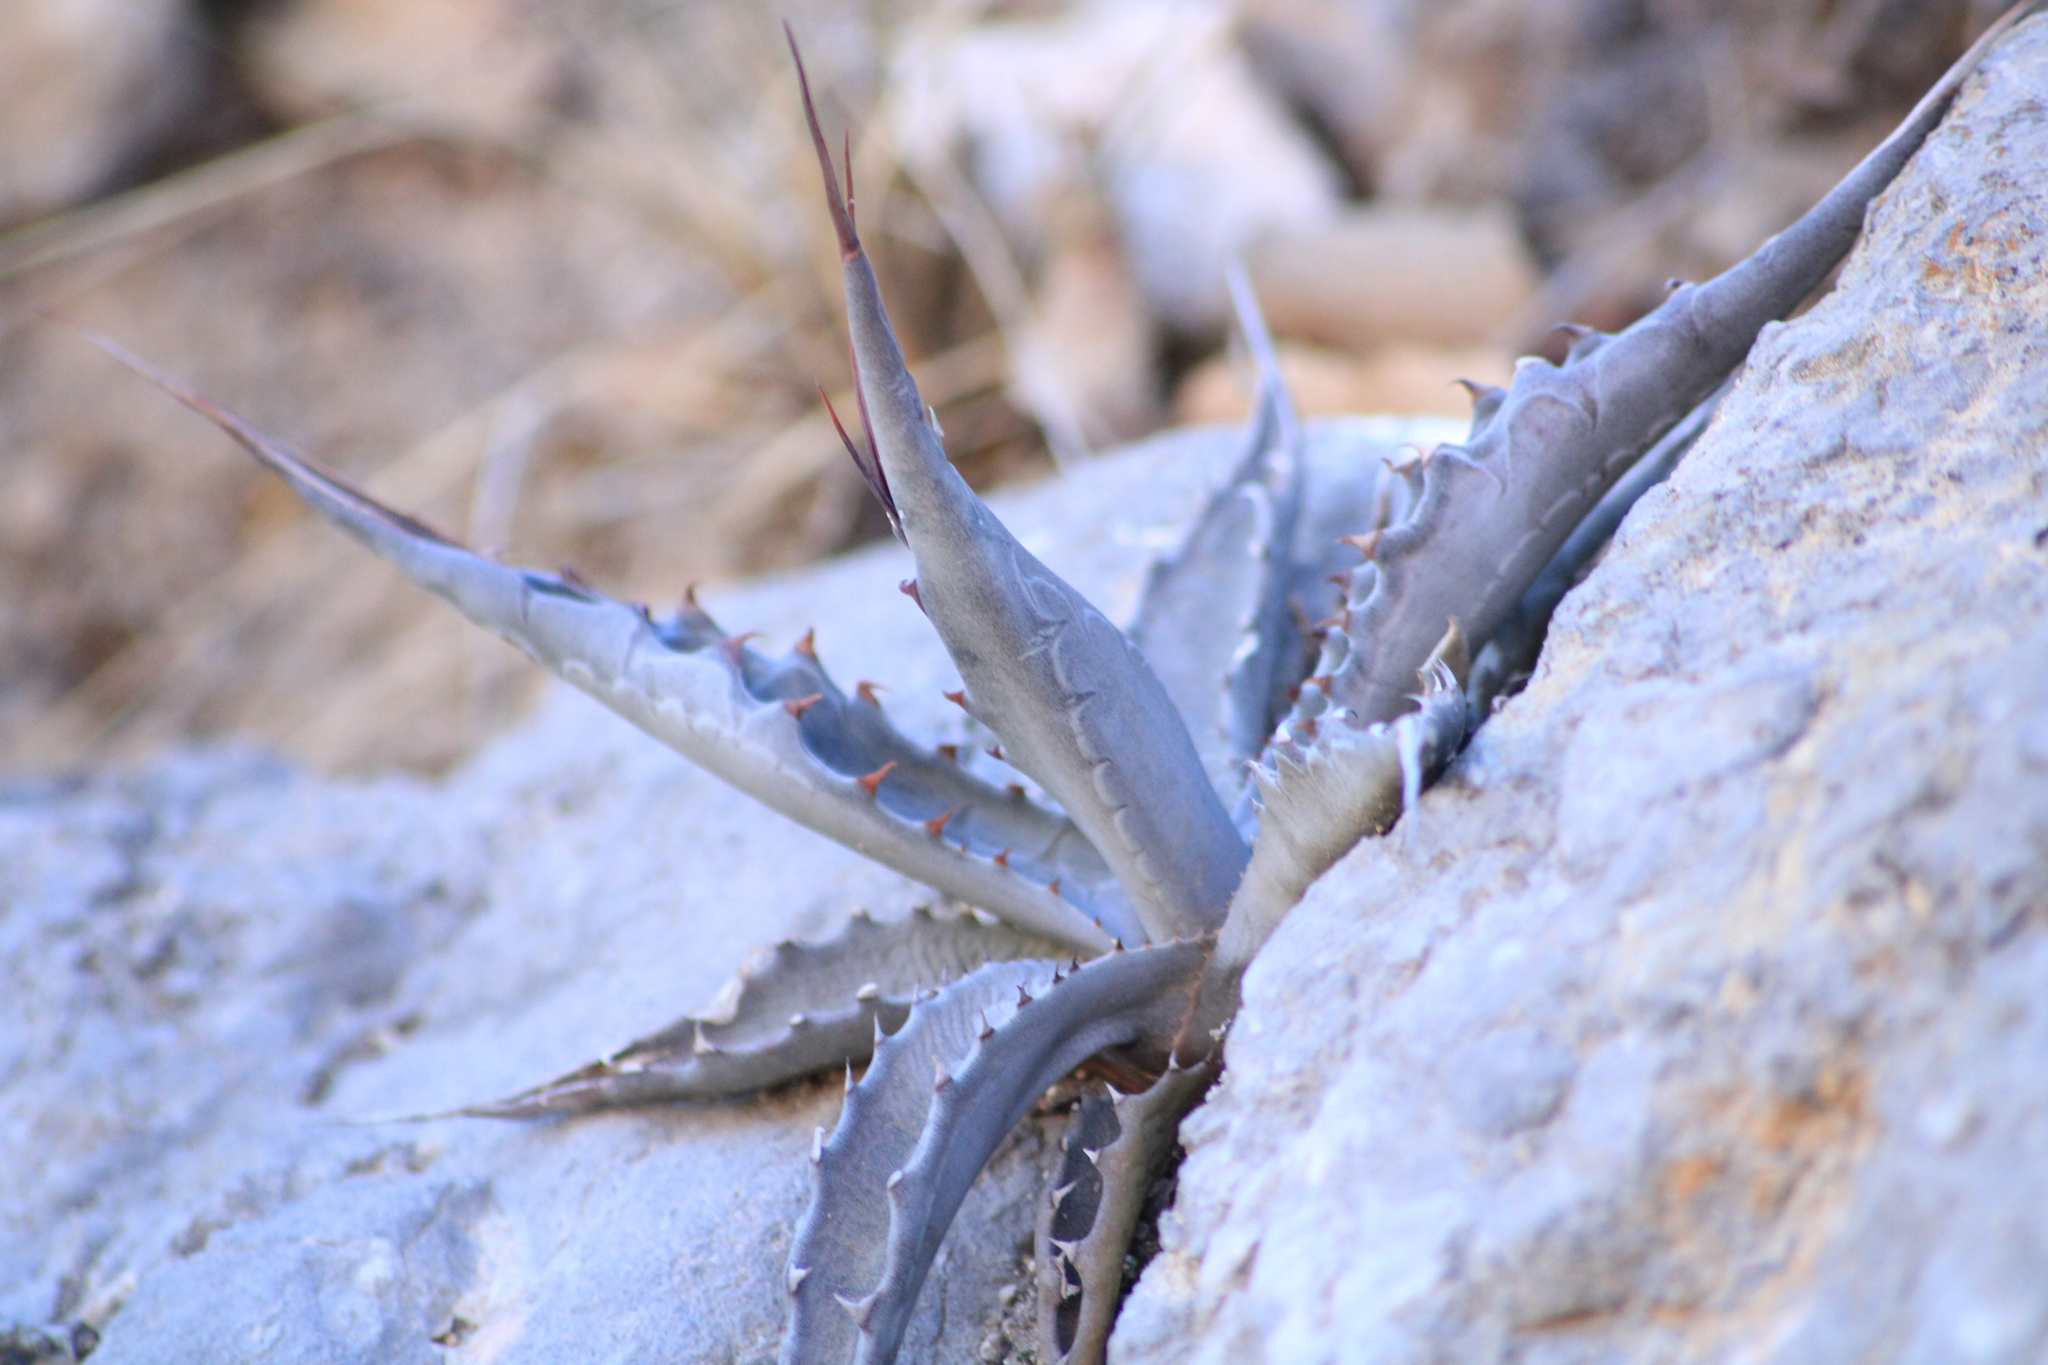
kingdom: Plantae
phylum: Tracheophyta
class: Liliopsida
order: Asparagales
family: Asparagaceae
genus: Agave
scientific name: Agave asperrima
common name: Rough agave
